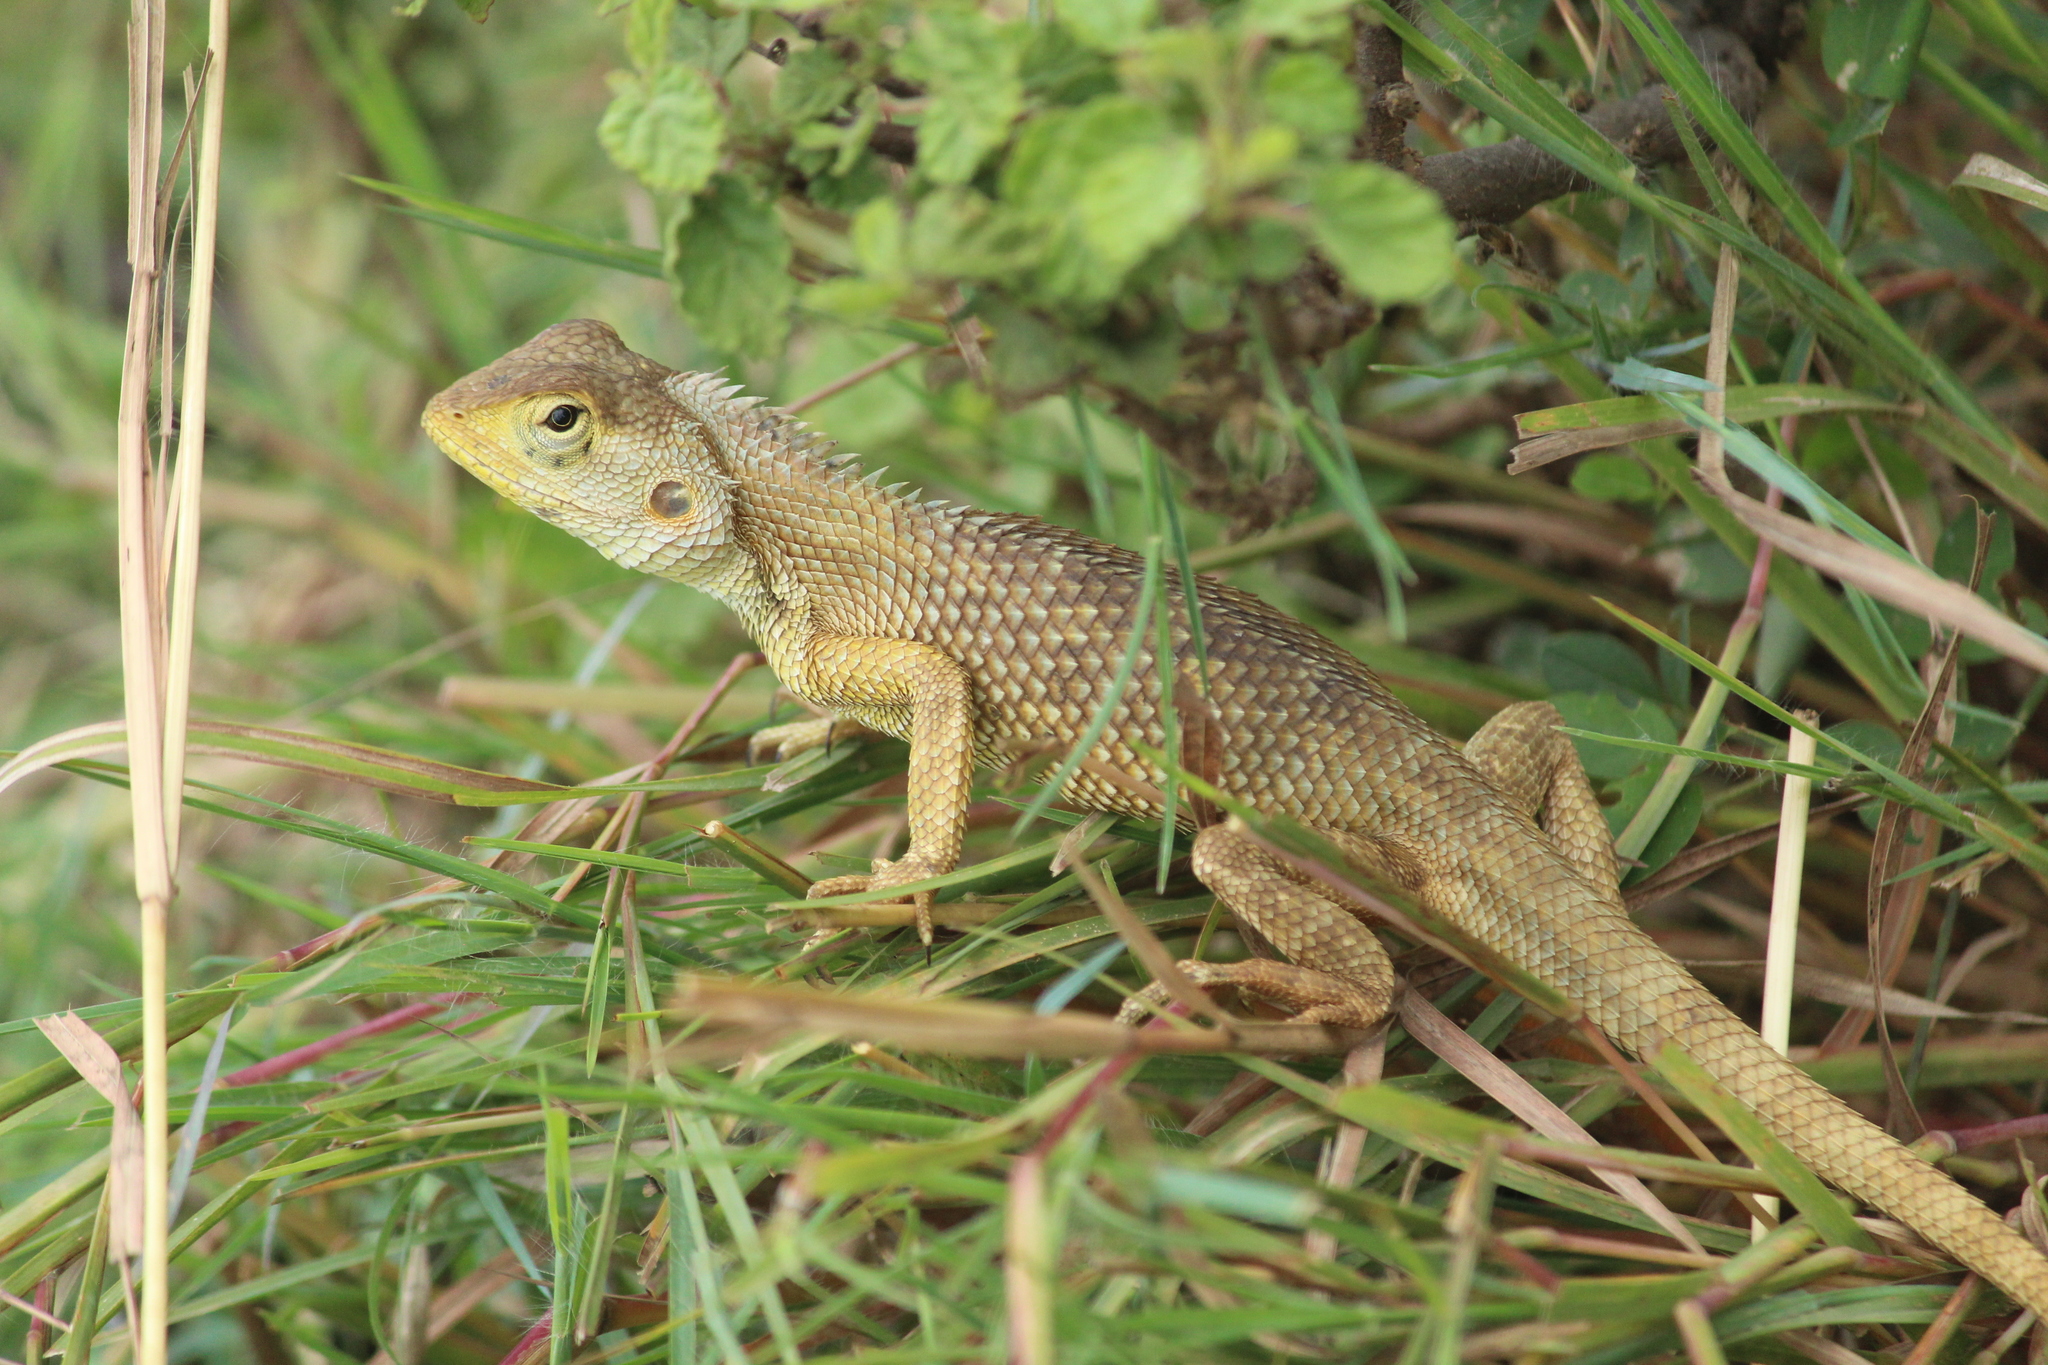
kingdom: Animalia
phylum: Chordata
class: Squamata
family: Agamidae
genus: Calotes
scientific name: Calotes versicolor
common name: Oriental garden lizard
